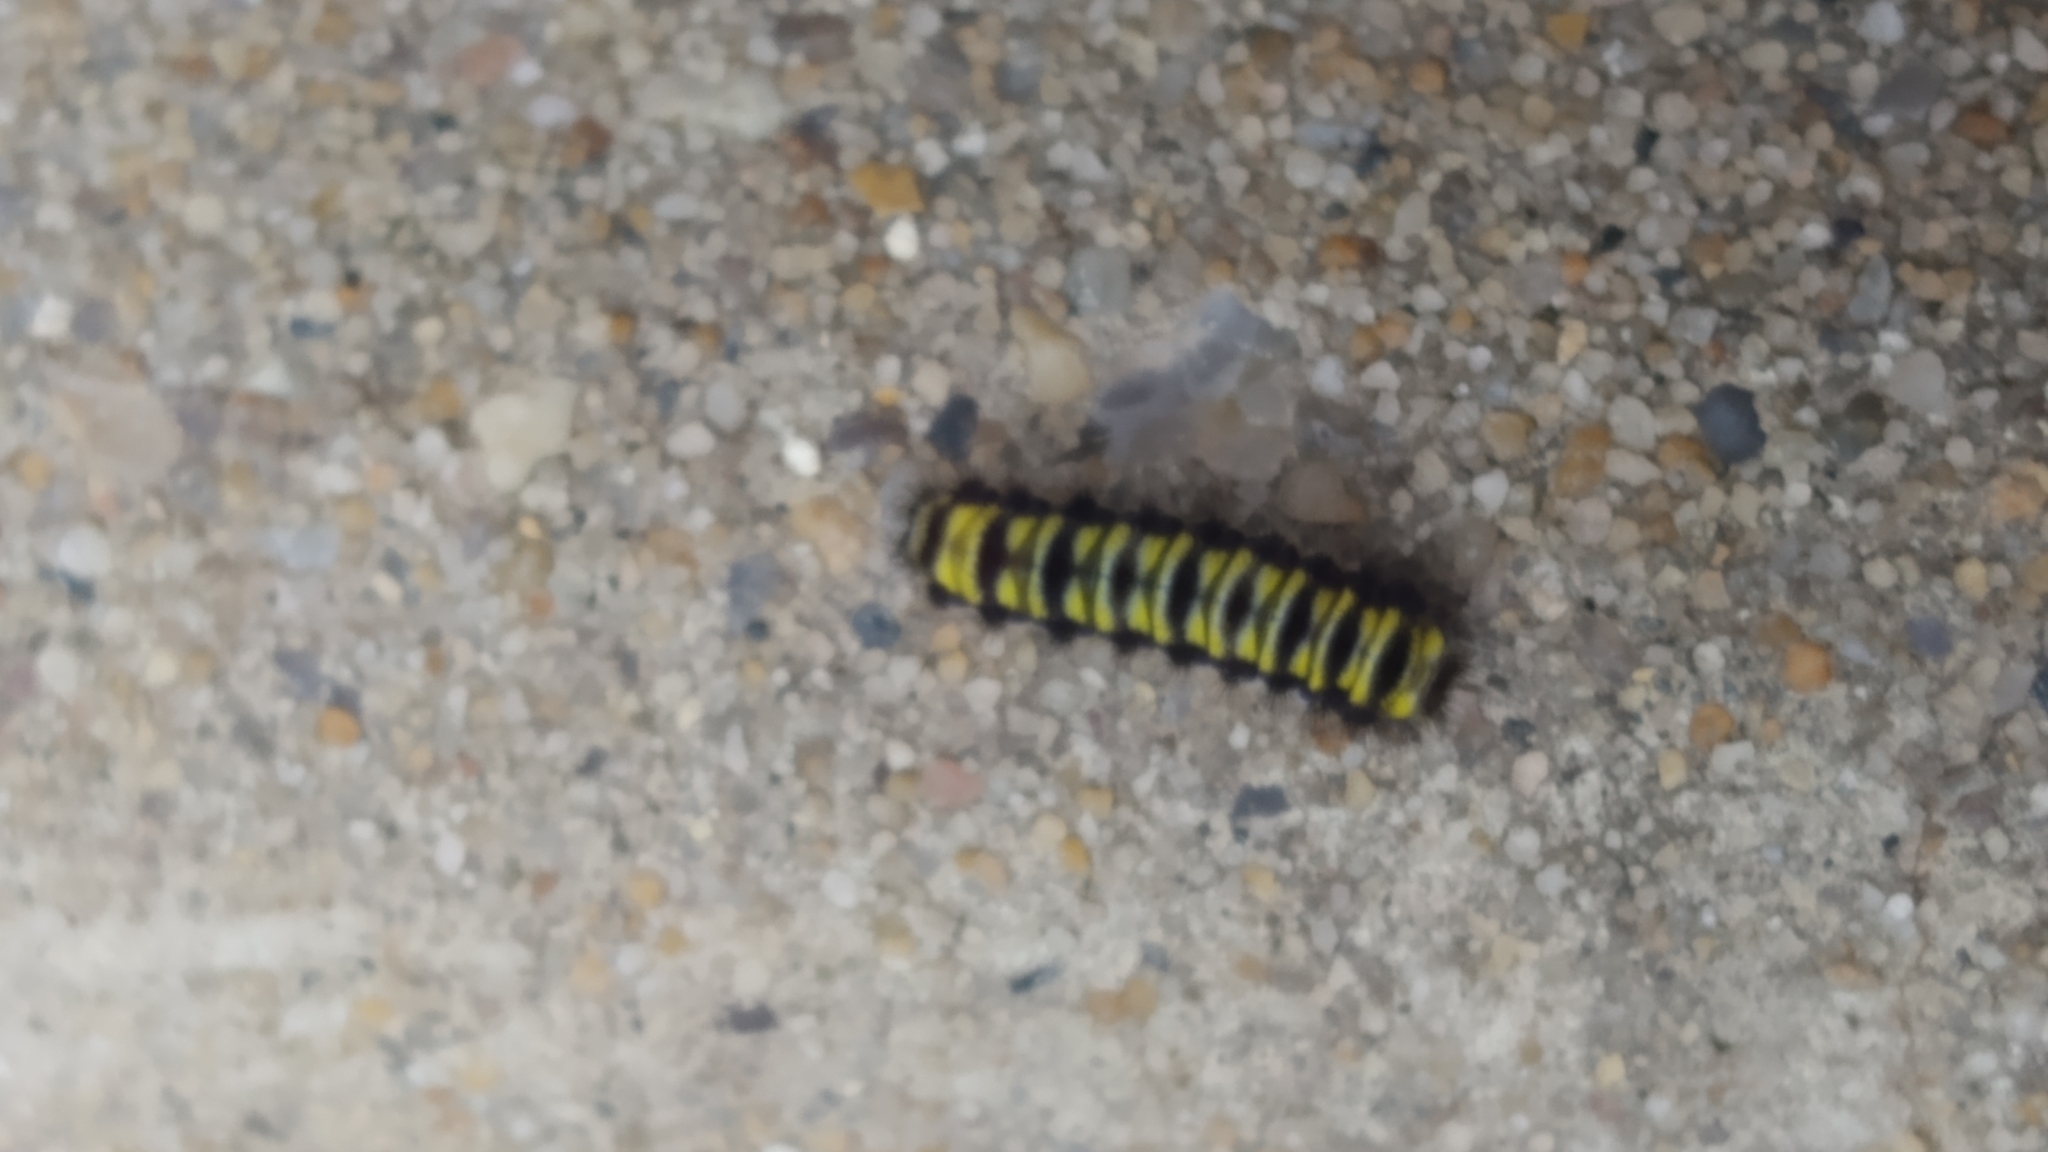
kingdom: Animalia
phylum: Arthropoda
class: Insecta
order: Lepidoptera
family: Zygaenidae
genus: Harrisina
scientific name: Harrisina americana
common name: Grapeleaf skeletonizer moth
